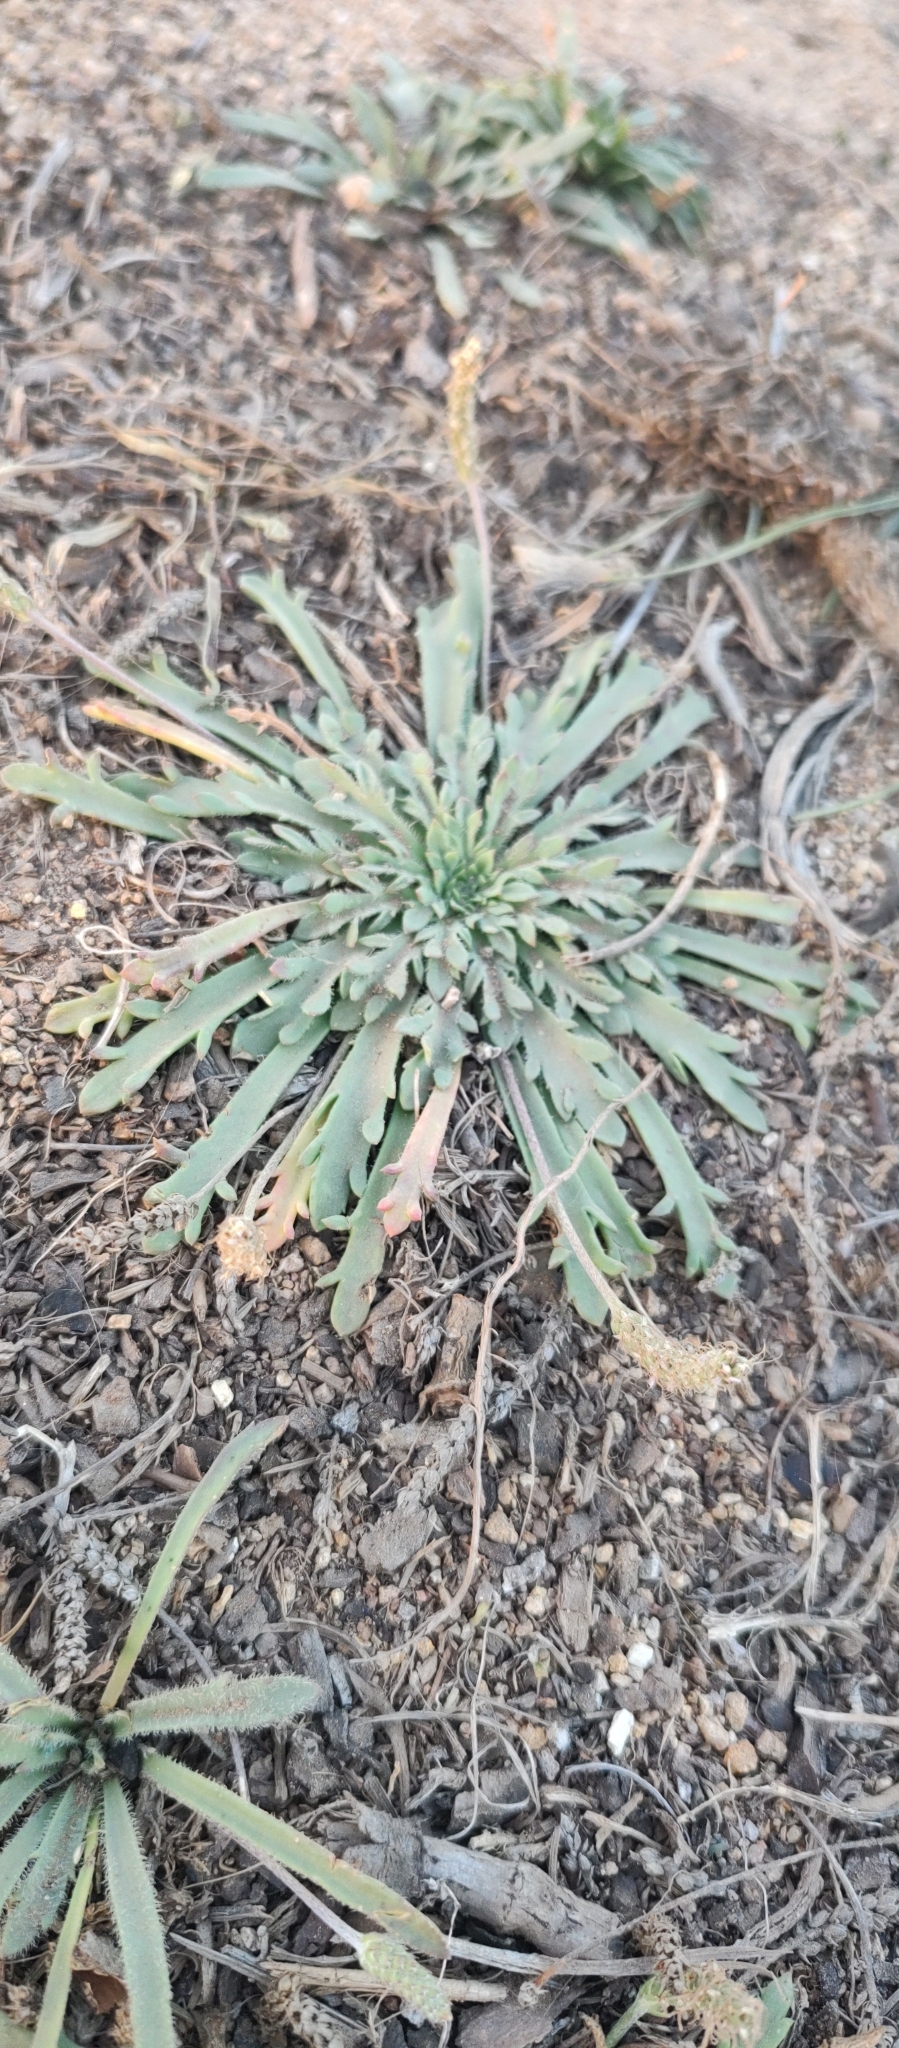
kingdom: Plantae
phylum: Tracheophyta
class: Magnoliopsida
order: Lamiales
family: Plantaginaceae
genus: Plantago
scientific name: Plantago coronopus
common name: Buck's-horn plantain
